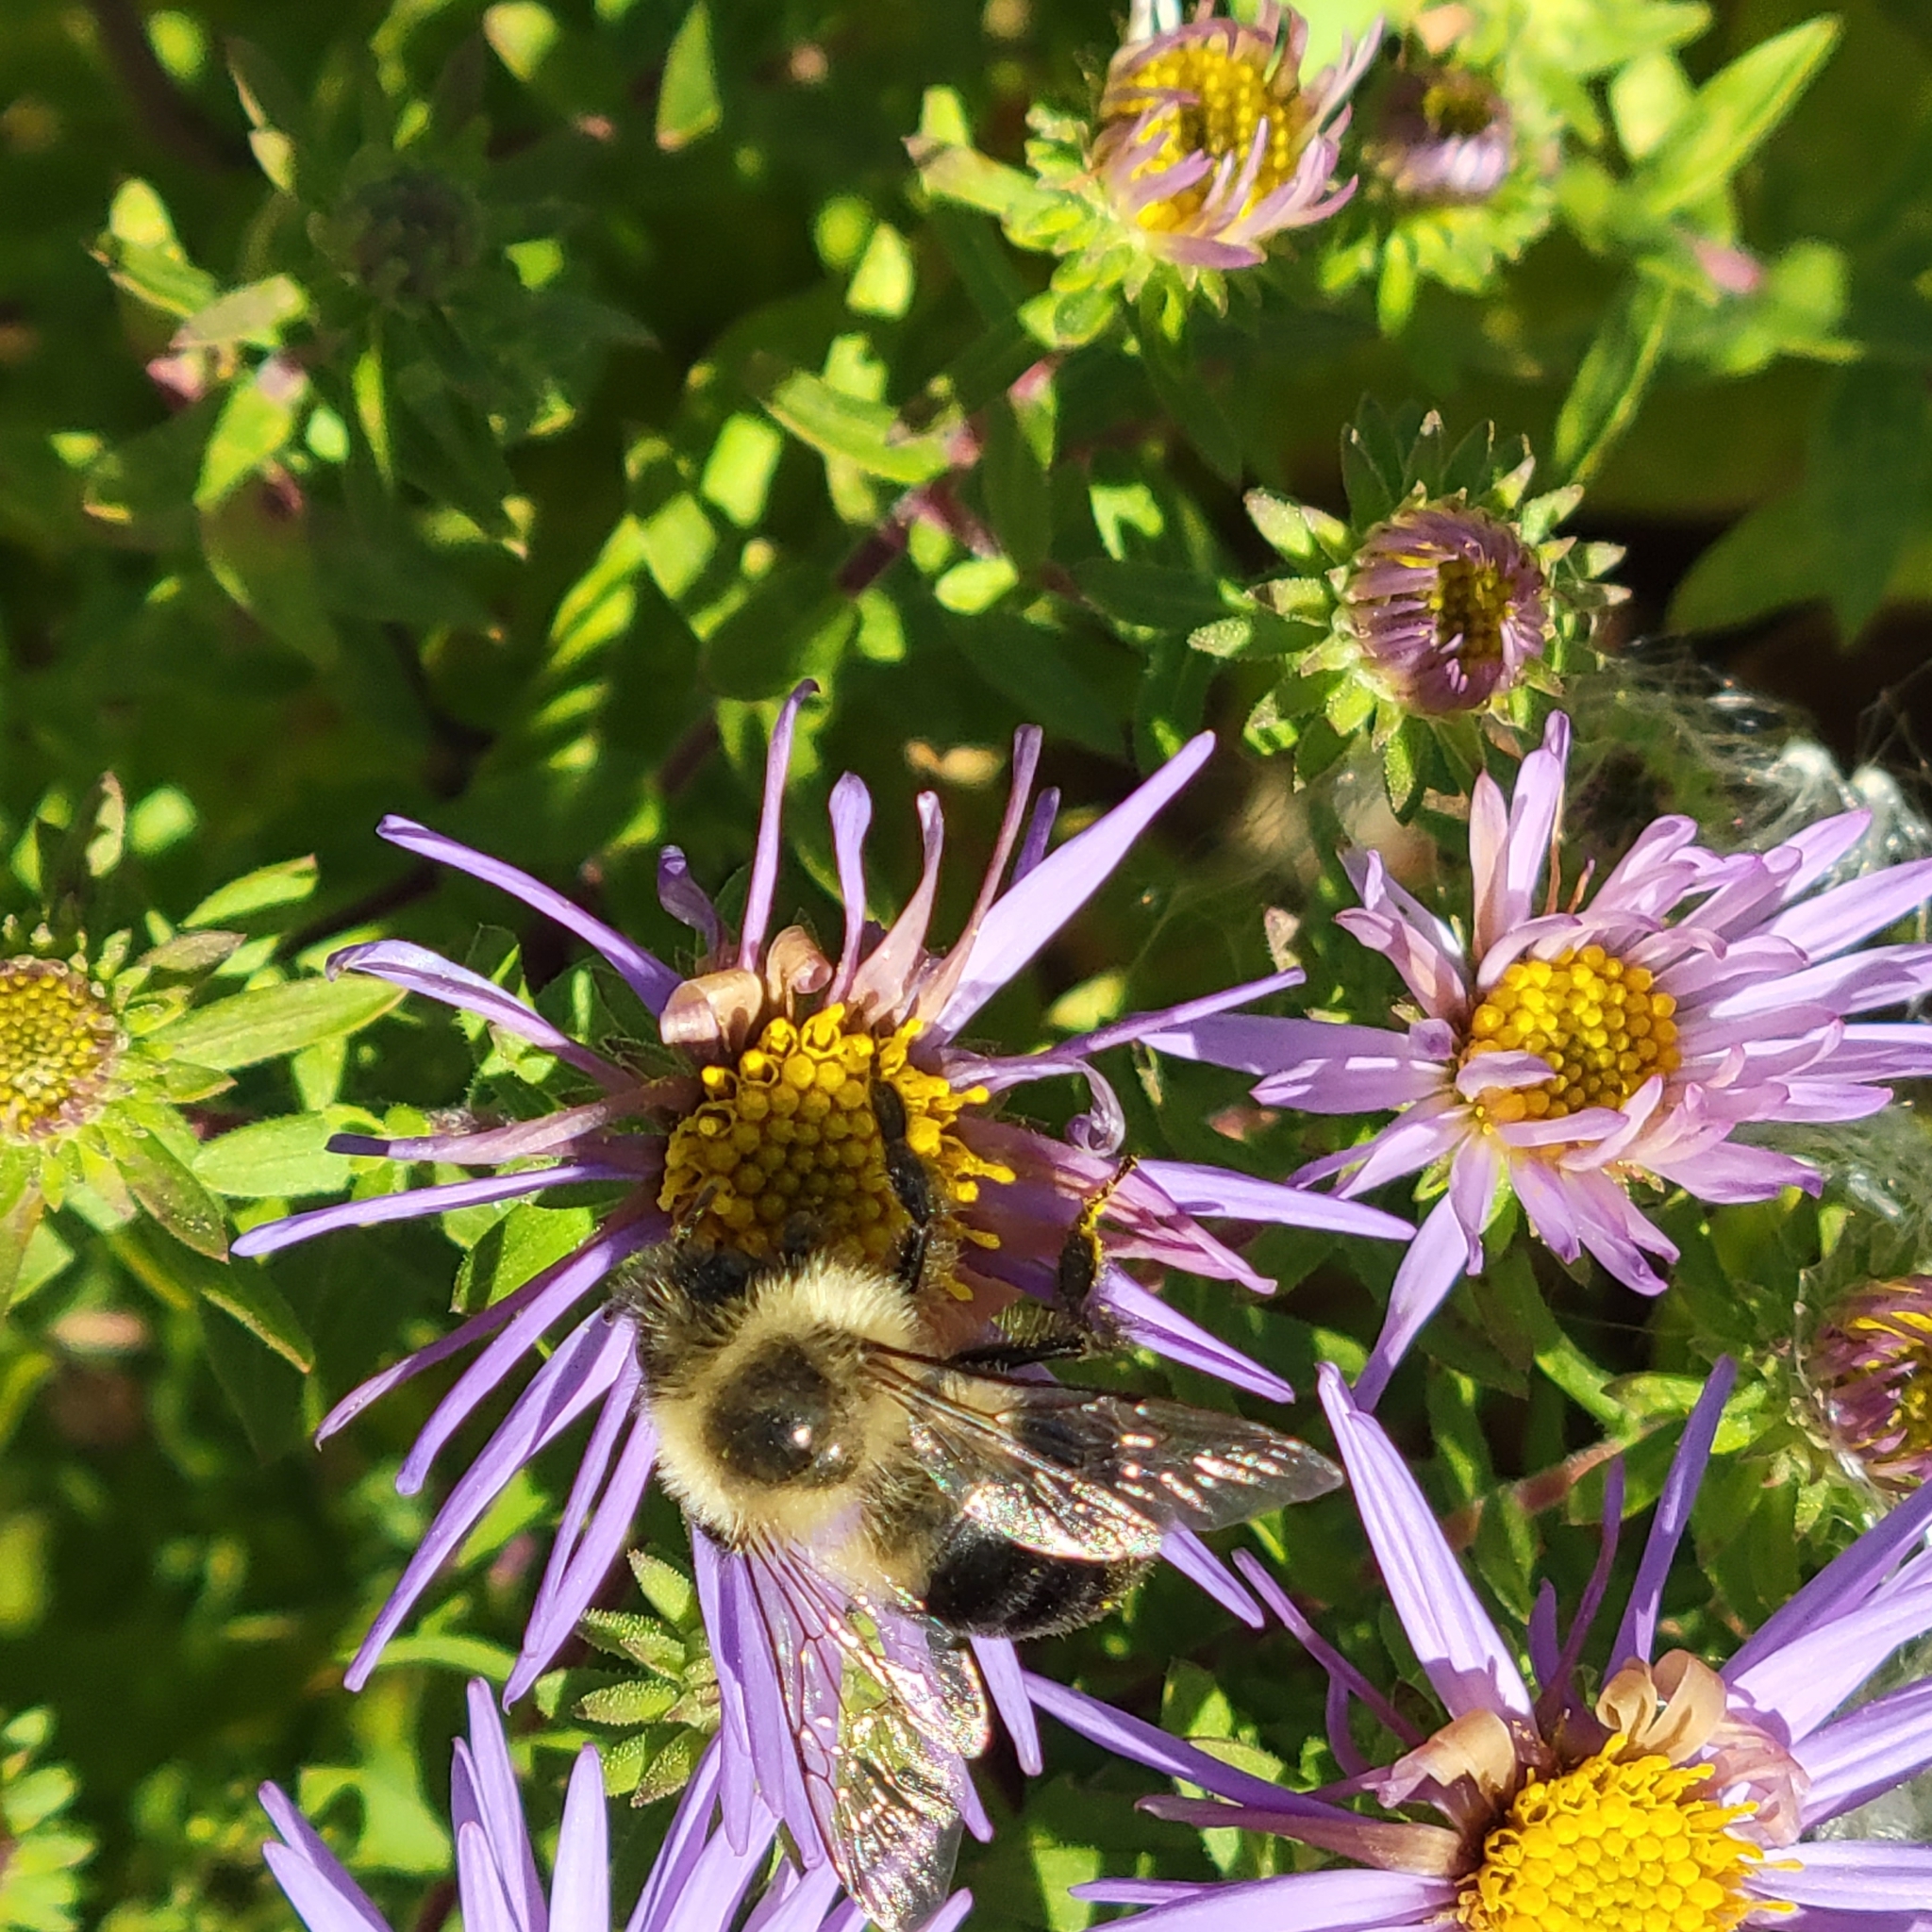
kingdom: Animalia
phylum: Arthropoda
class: Insecta
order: Hymenoptera
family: Apidae
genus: Bombus
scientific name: Bombus impatiens
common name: Common eastern bumble bee
